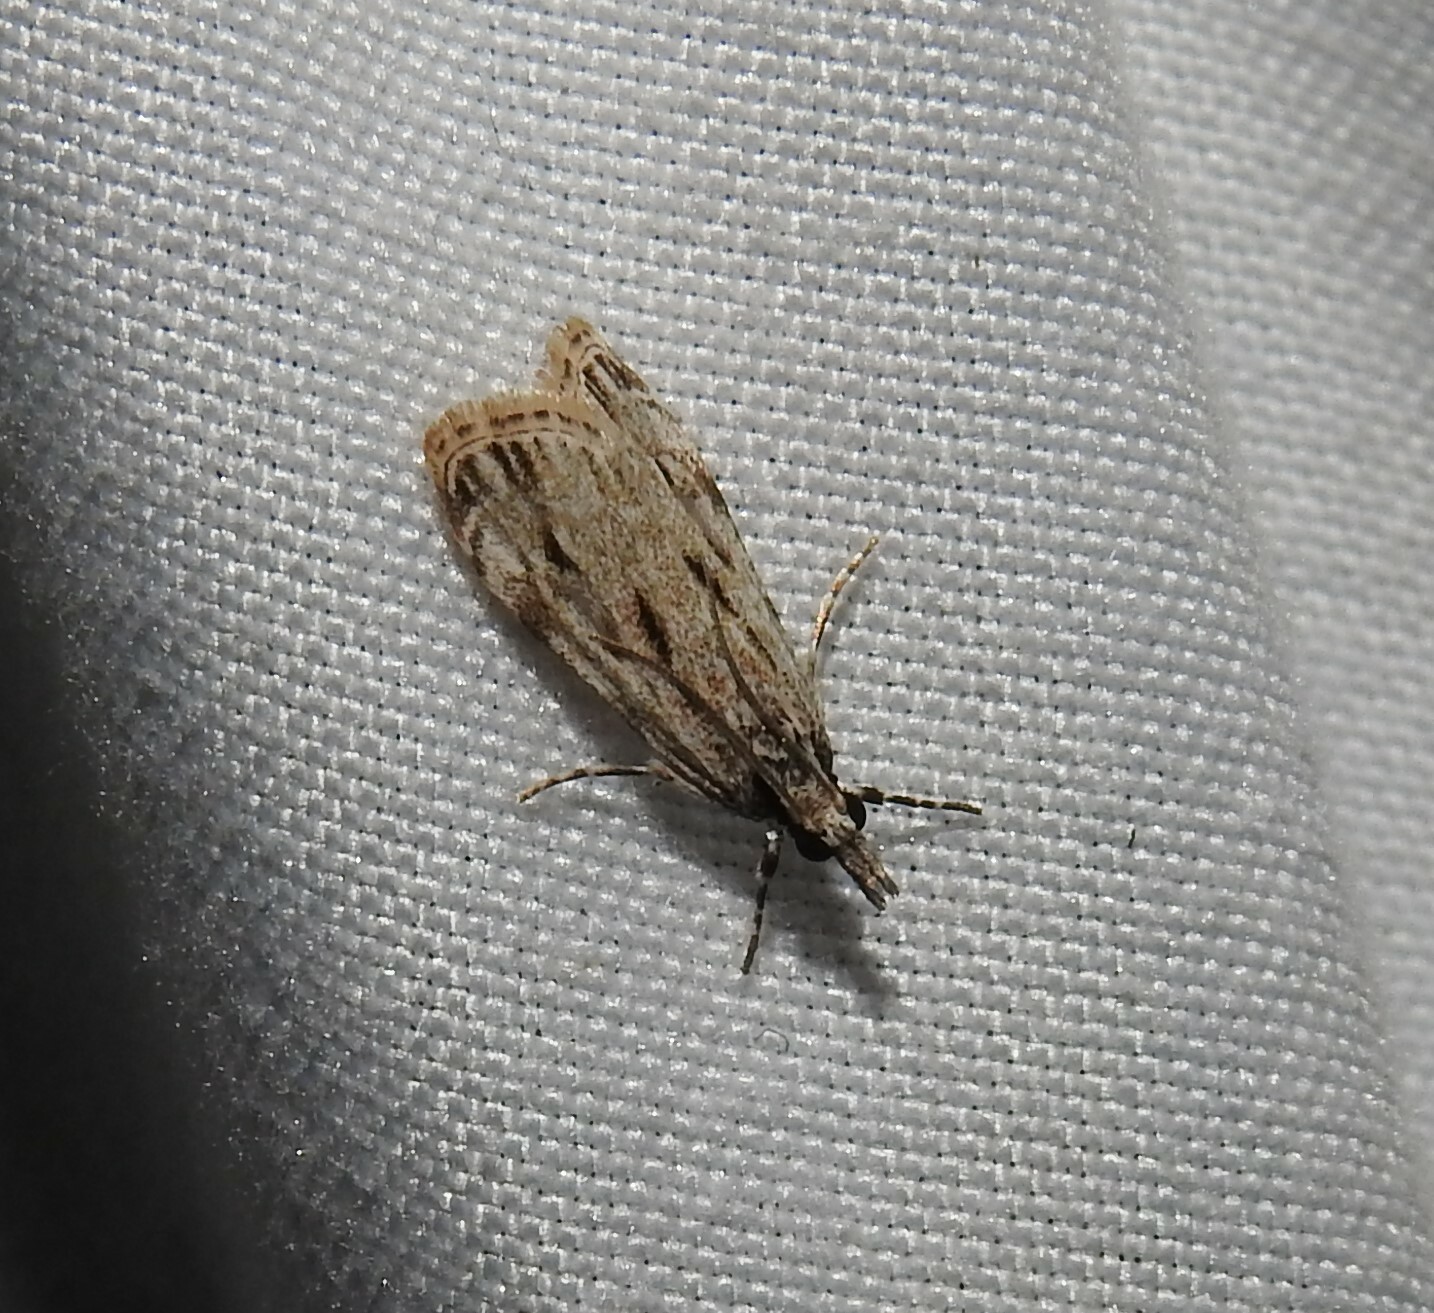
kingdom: Animalia
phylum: Arthropoda
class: Insecta
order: Lepidoptera
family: Crambidae
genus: Eudonia
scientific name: Eudonia strigalis
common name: Striped eudonia moth
